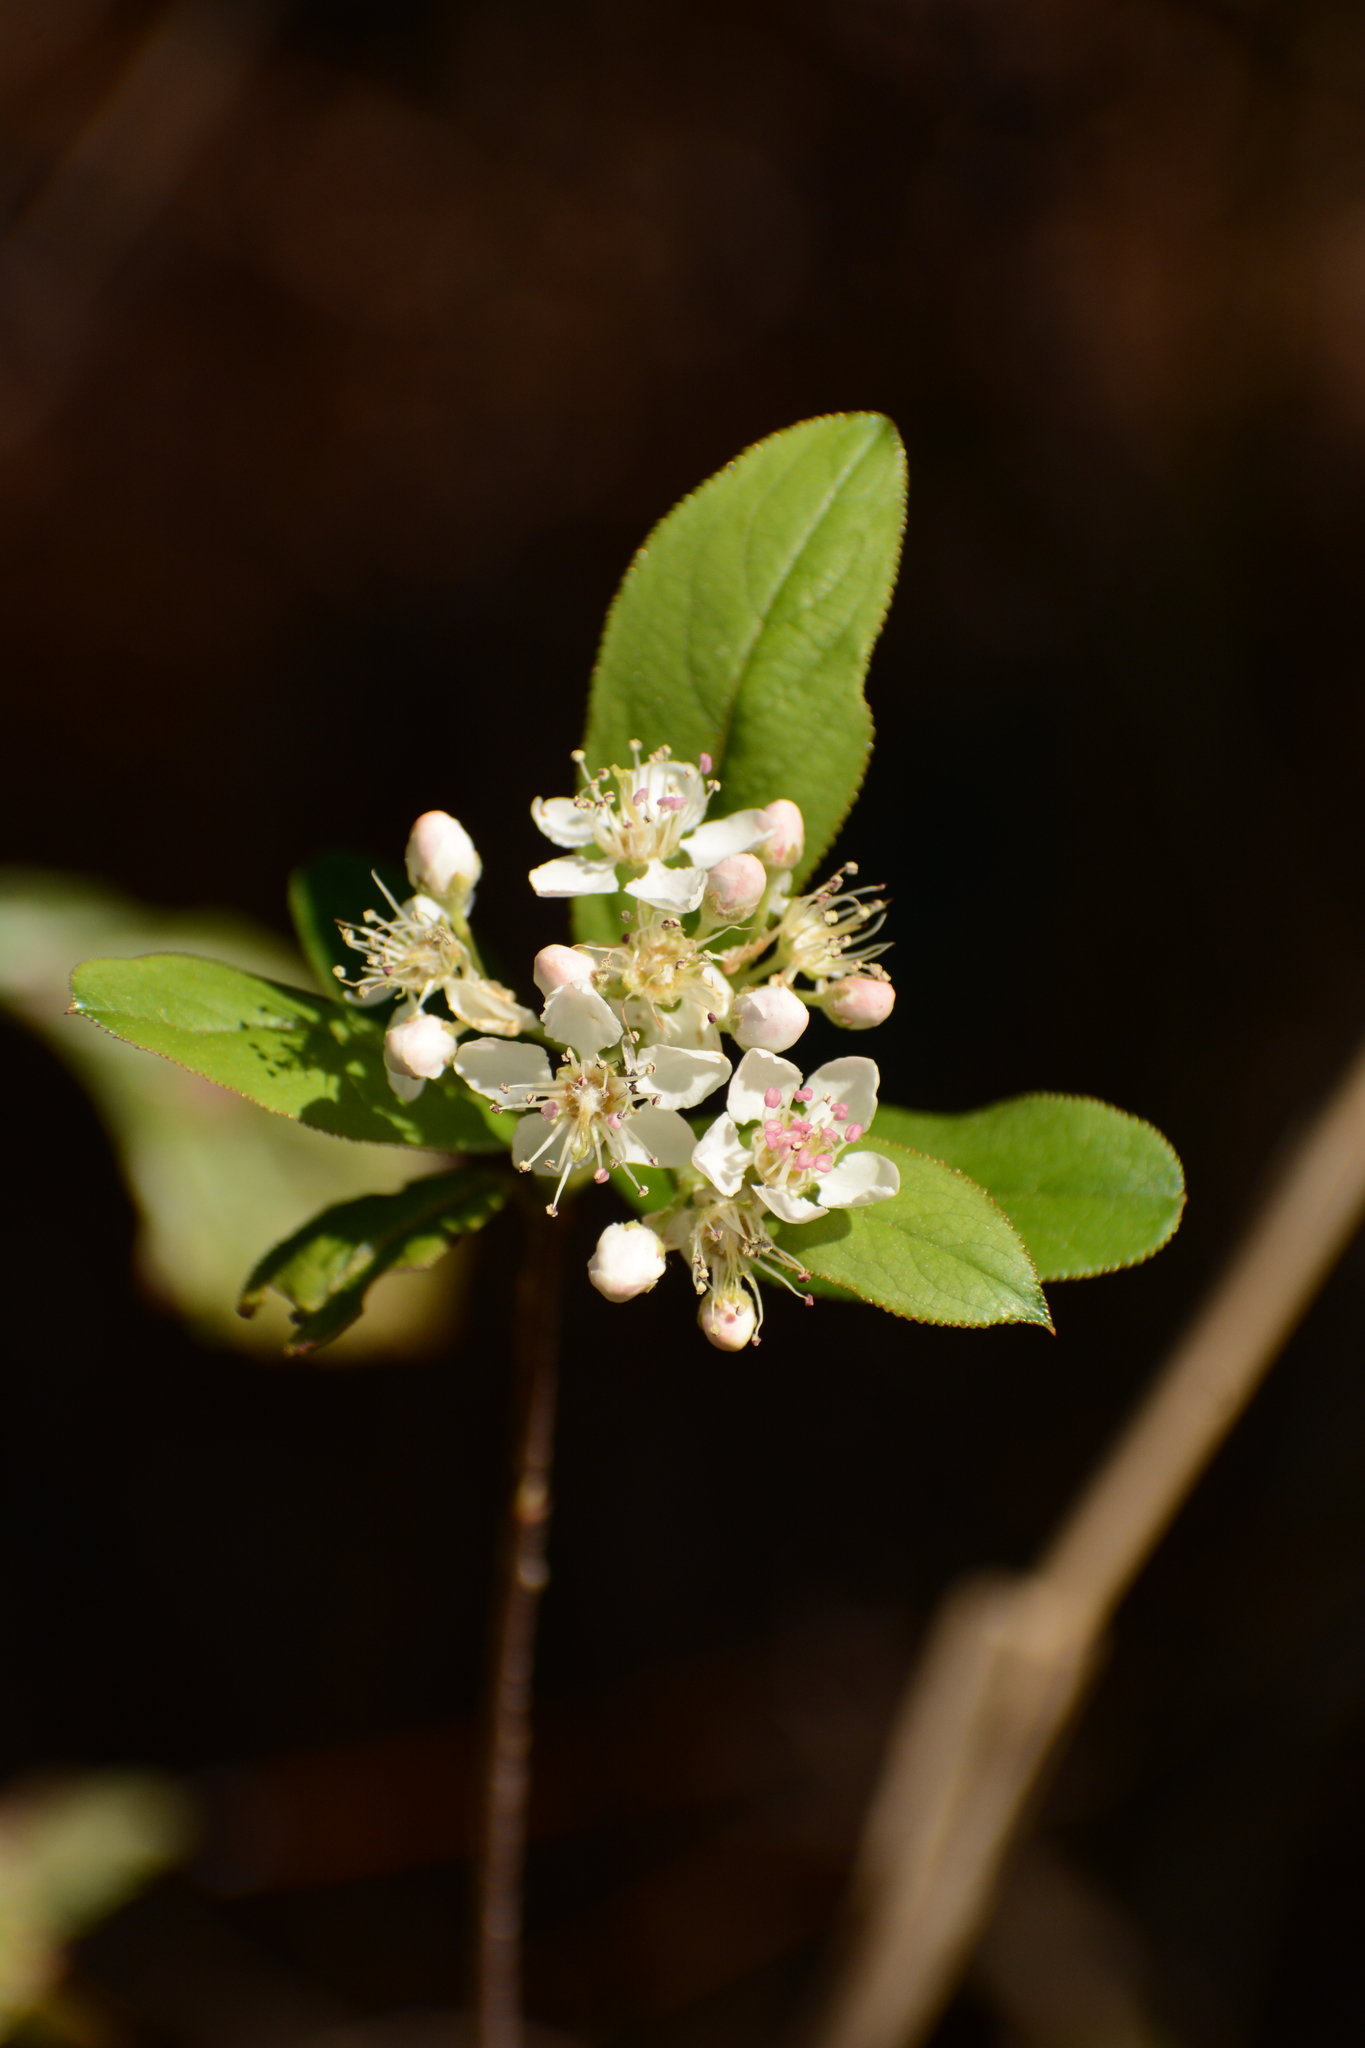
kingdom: Plantae
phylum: Tracheophyta
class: Magnoliopsida
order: Rosales
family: Rosaceae
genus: Aronia
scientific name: Aronia arbutifolia
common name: Red chokeberry
